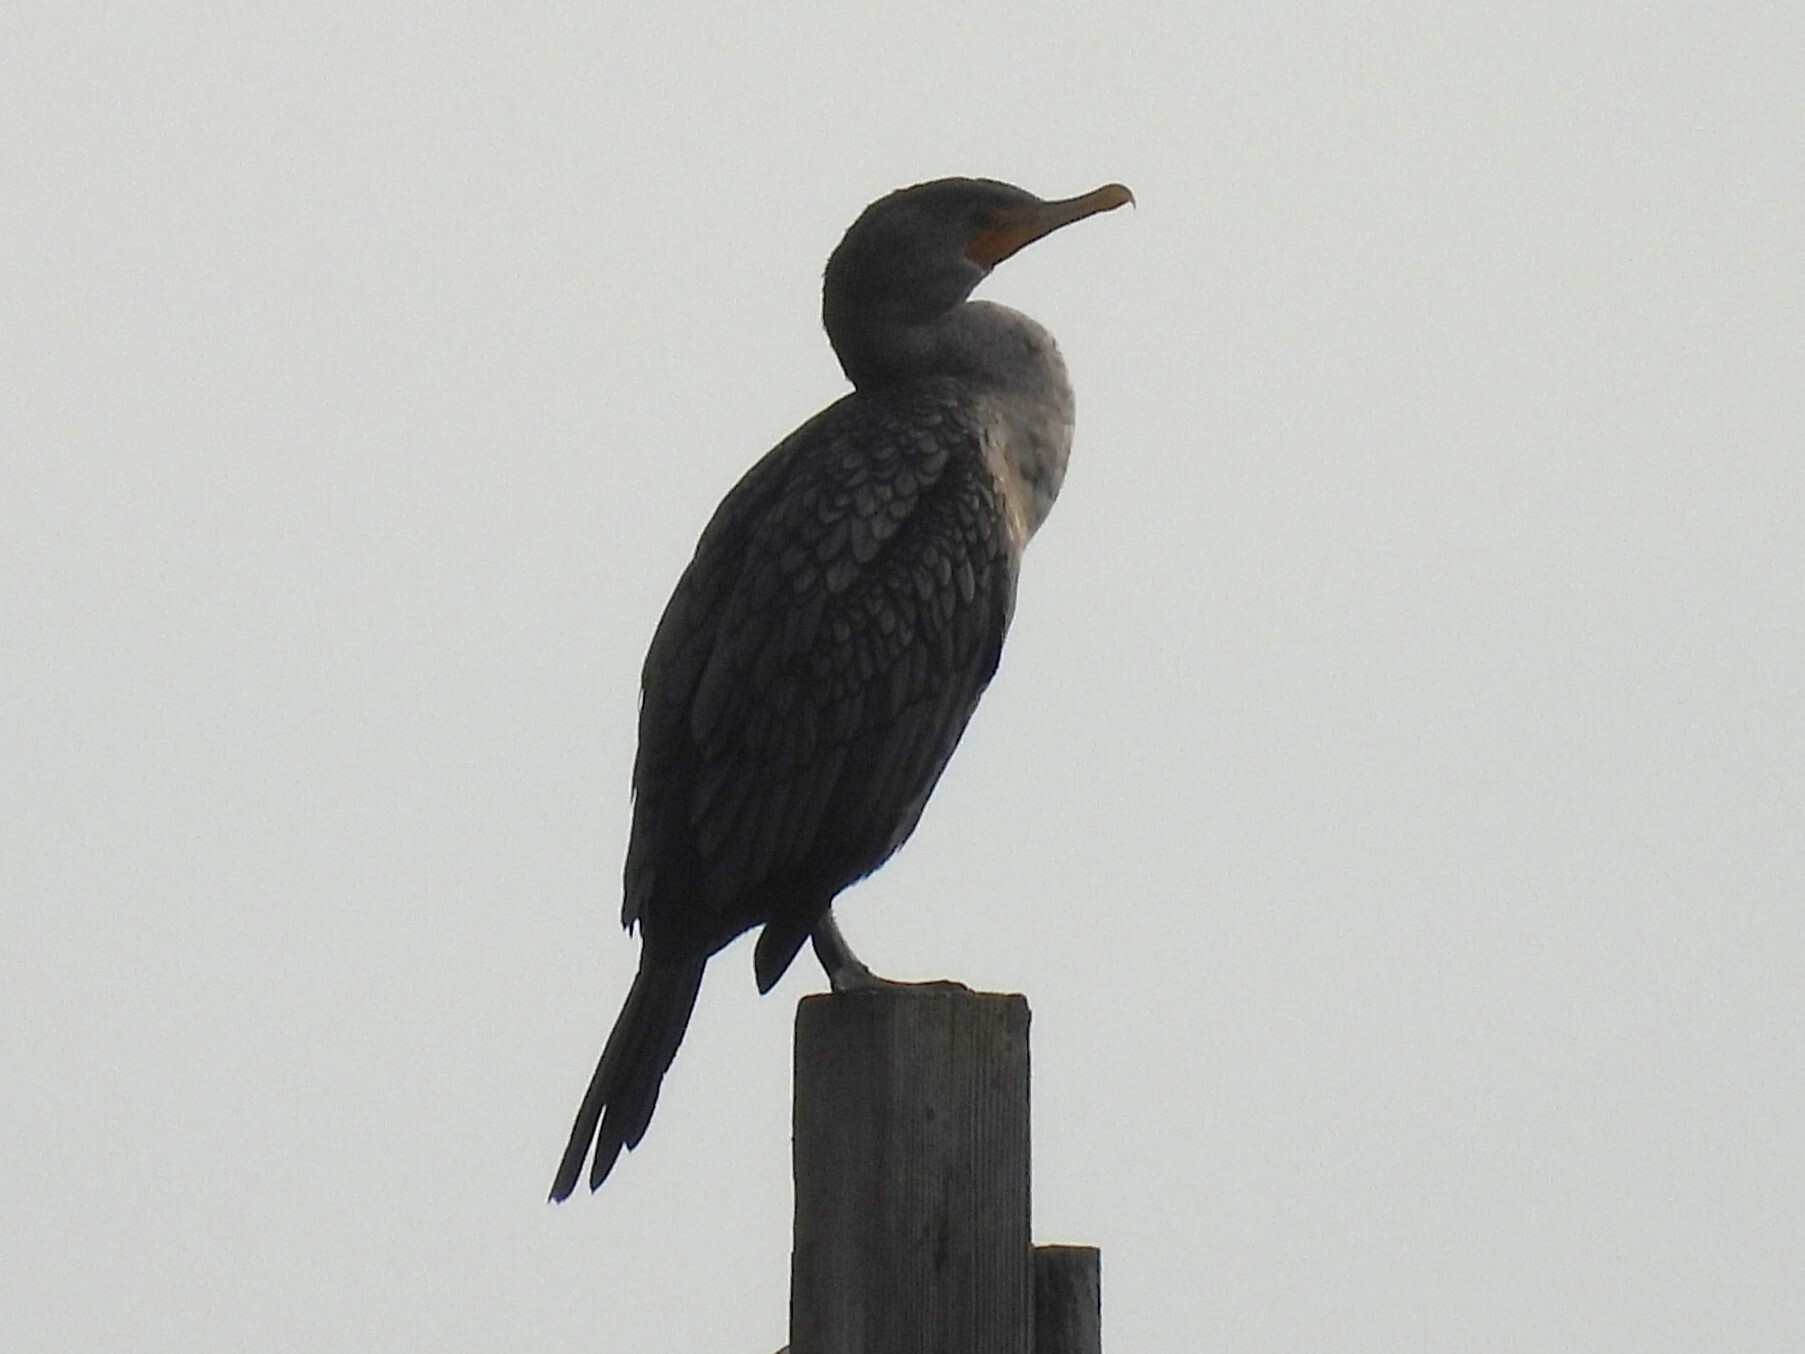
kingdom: Animalia
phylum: Chordata
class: Aves
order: Suliformes
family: Phalacrocoracidae
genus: Phalacrocorax
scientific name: Phalacrocorax auritus
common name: Double-crested cormorant
